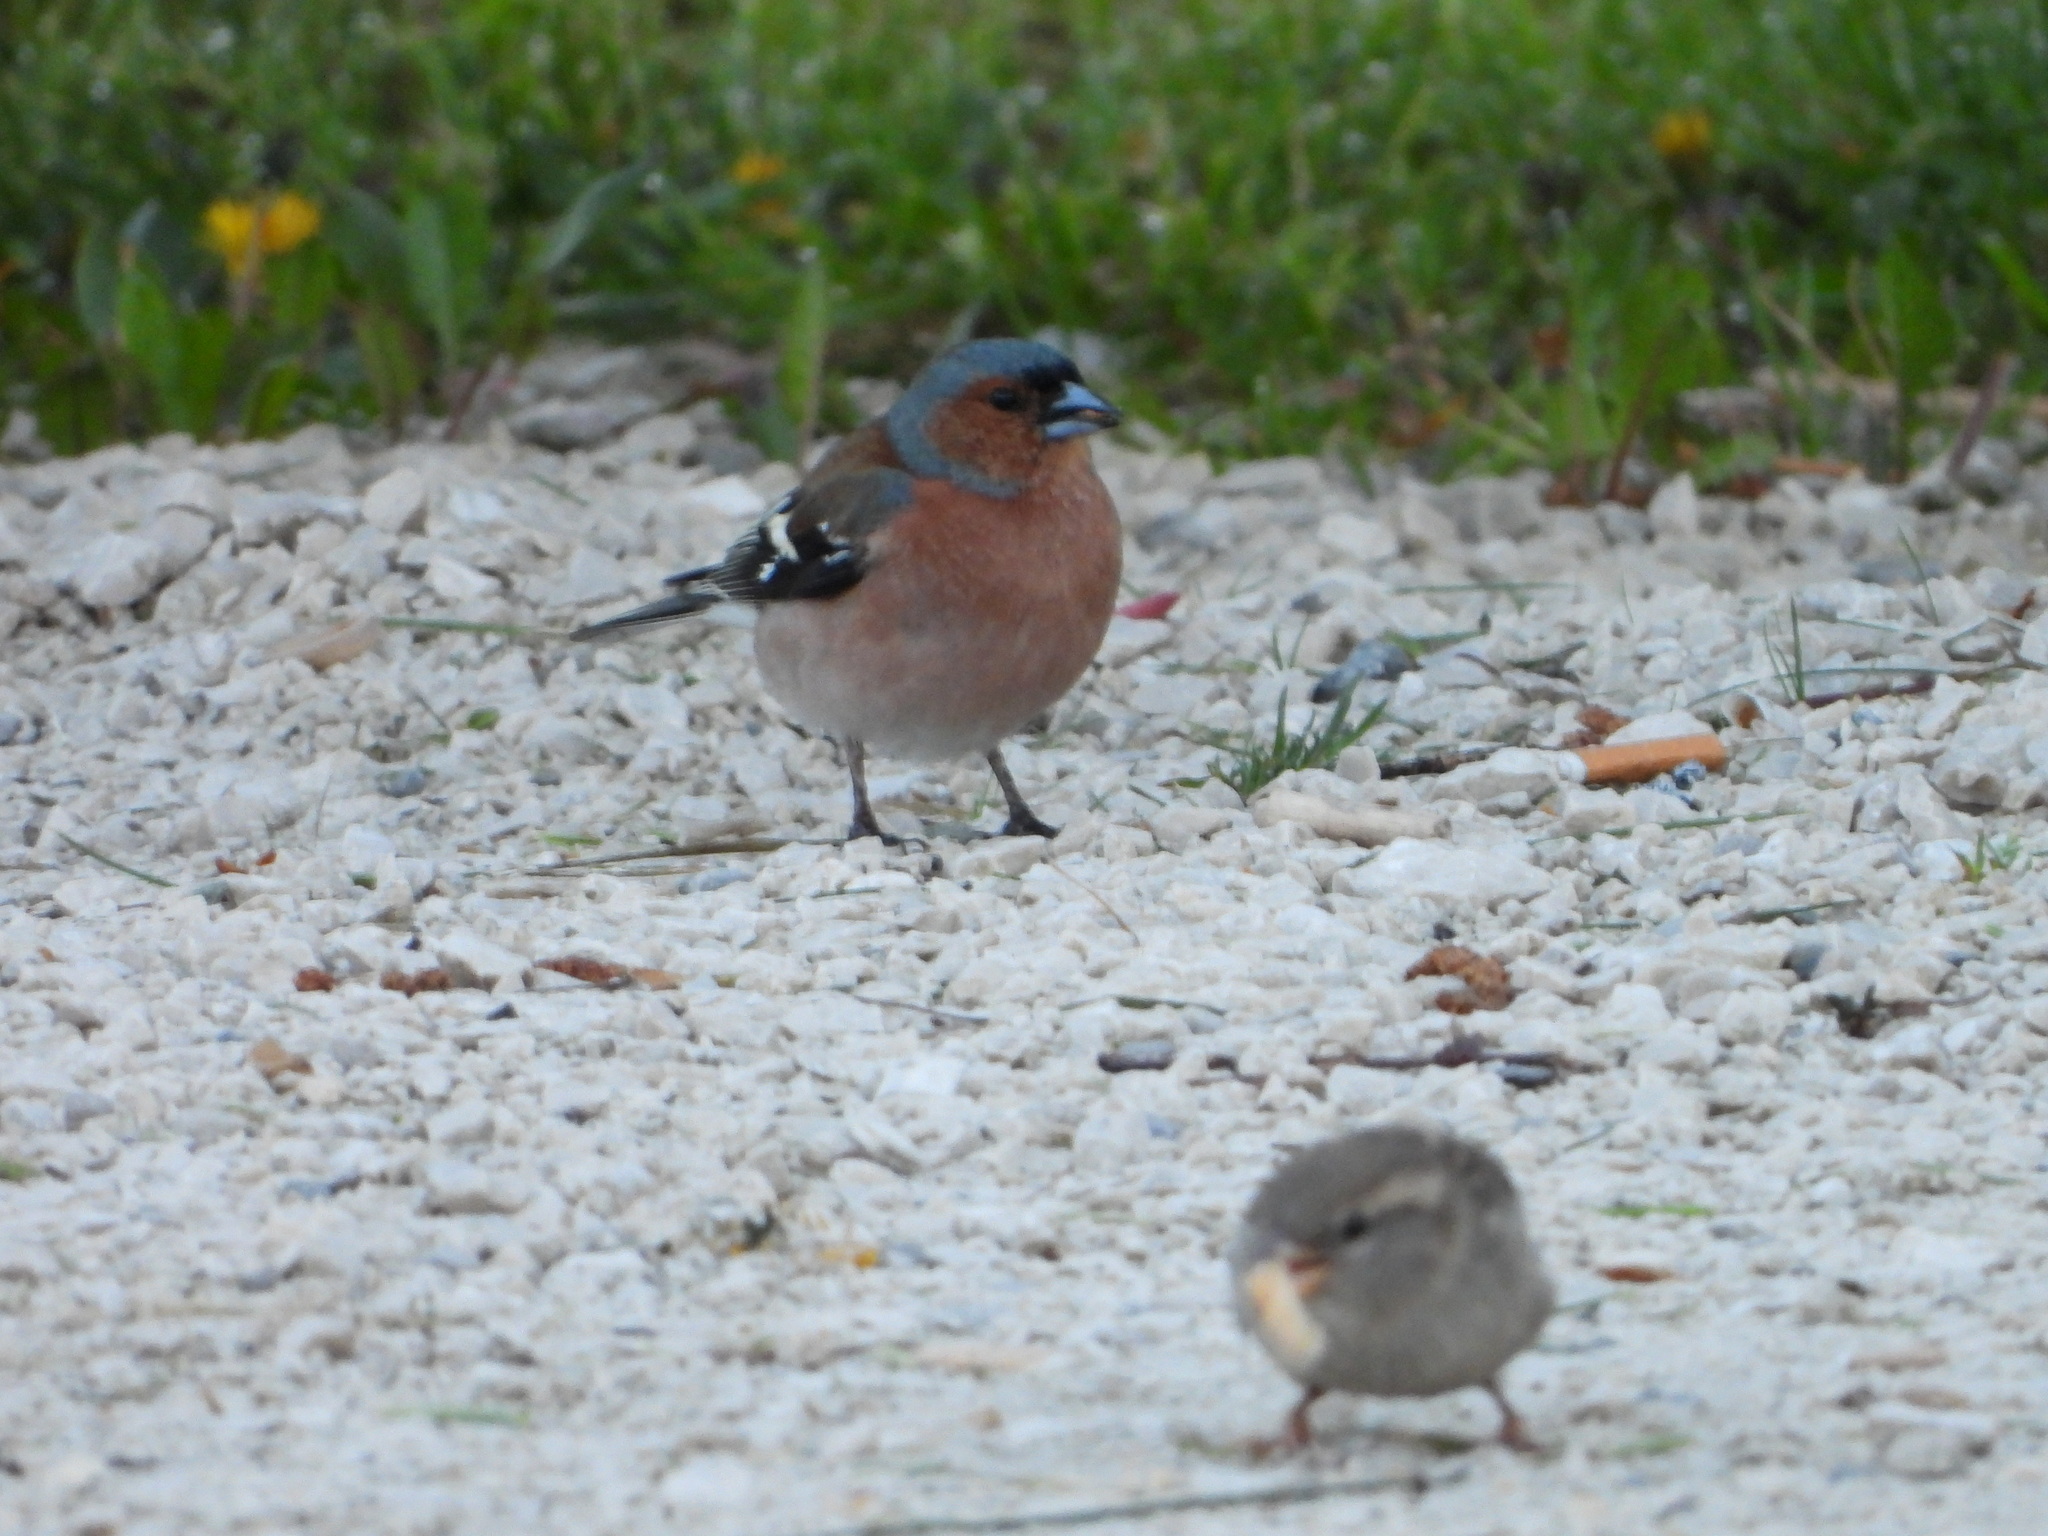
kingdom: Animalia
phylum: Chordata
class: Aves
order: Passeriformes
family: Fringillidae
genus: Fringilla
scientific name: Fringilla coelebs
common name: Common chaffinch
